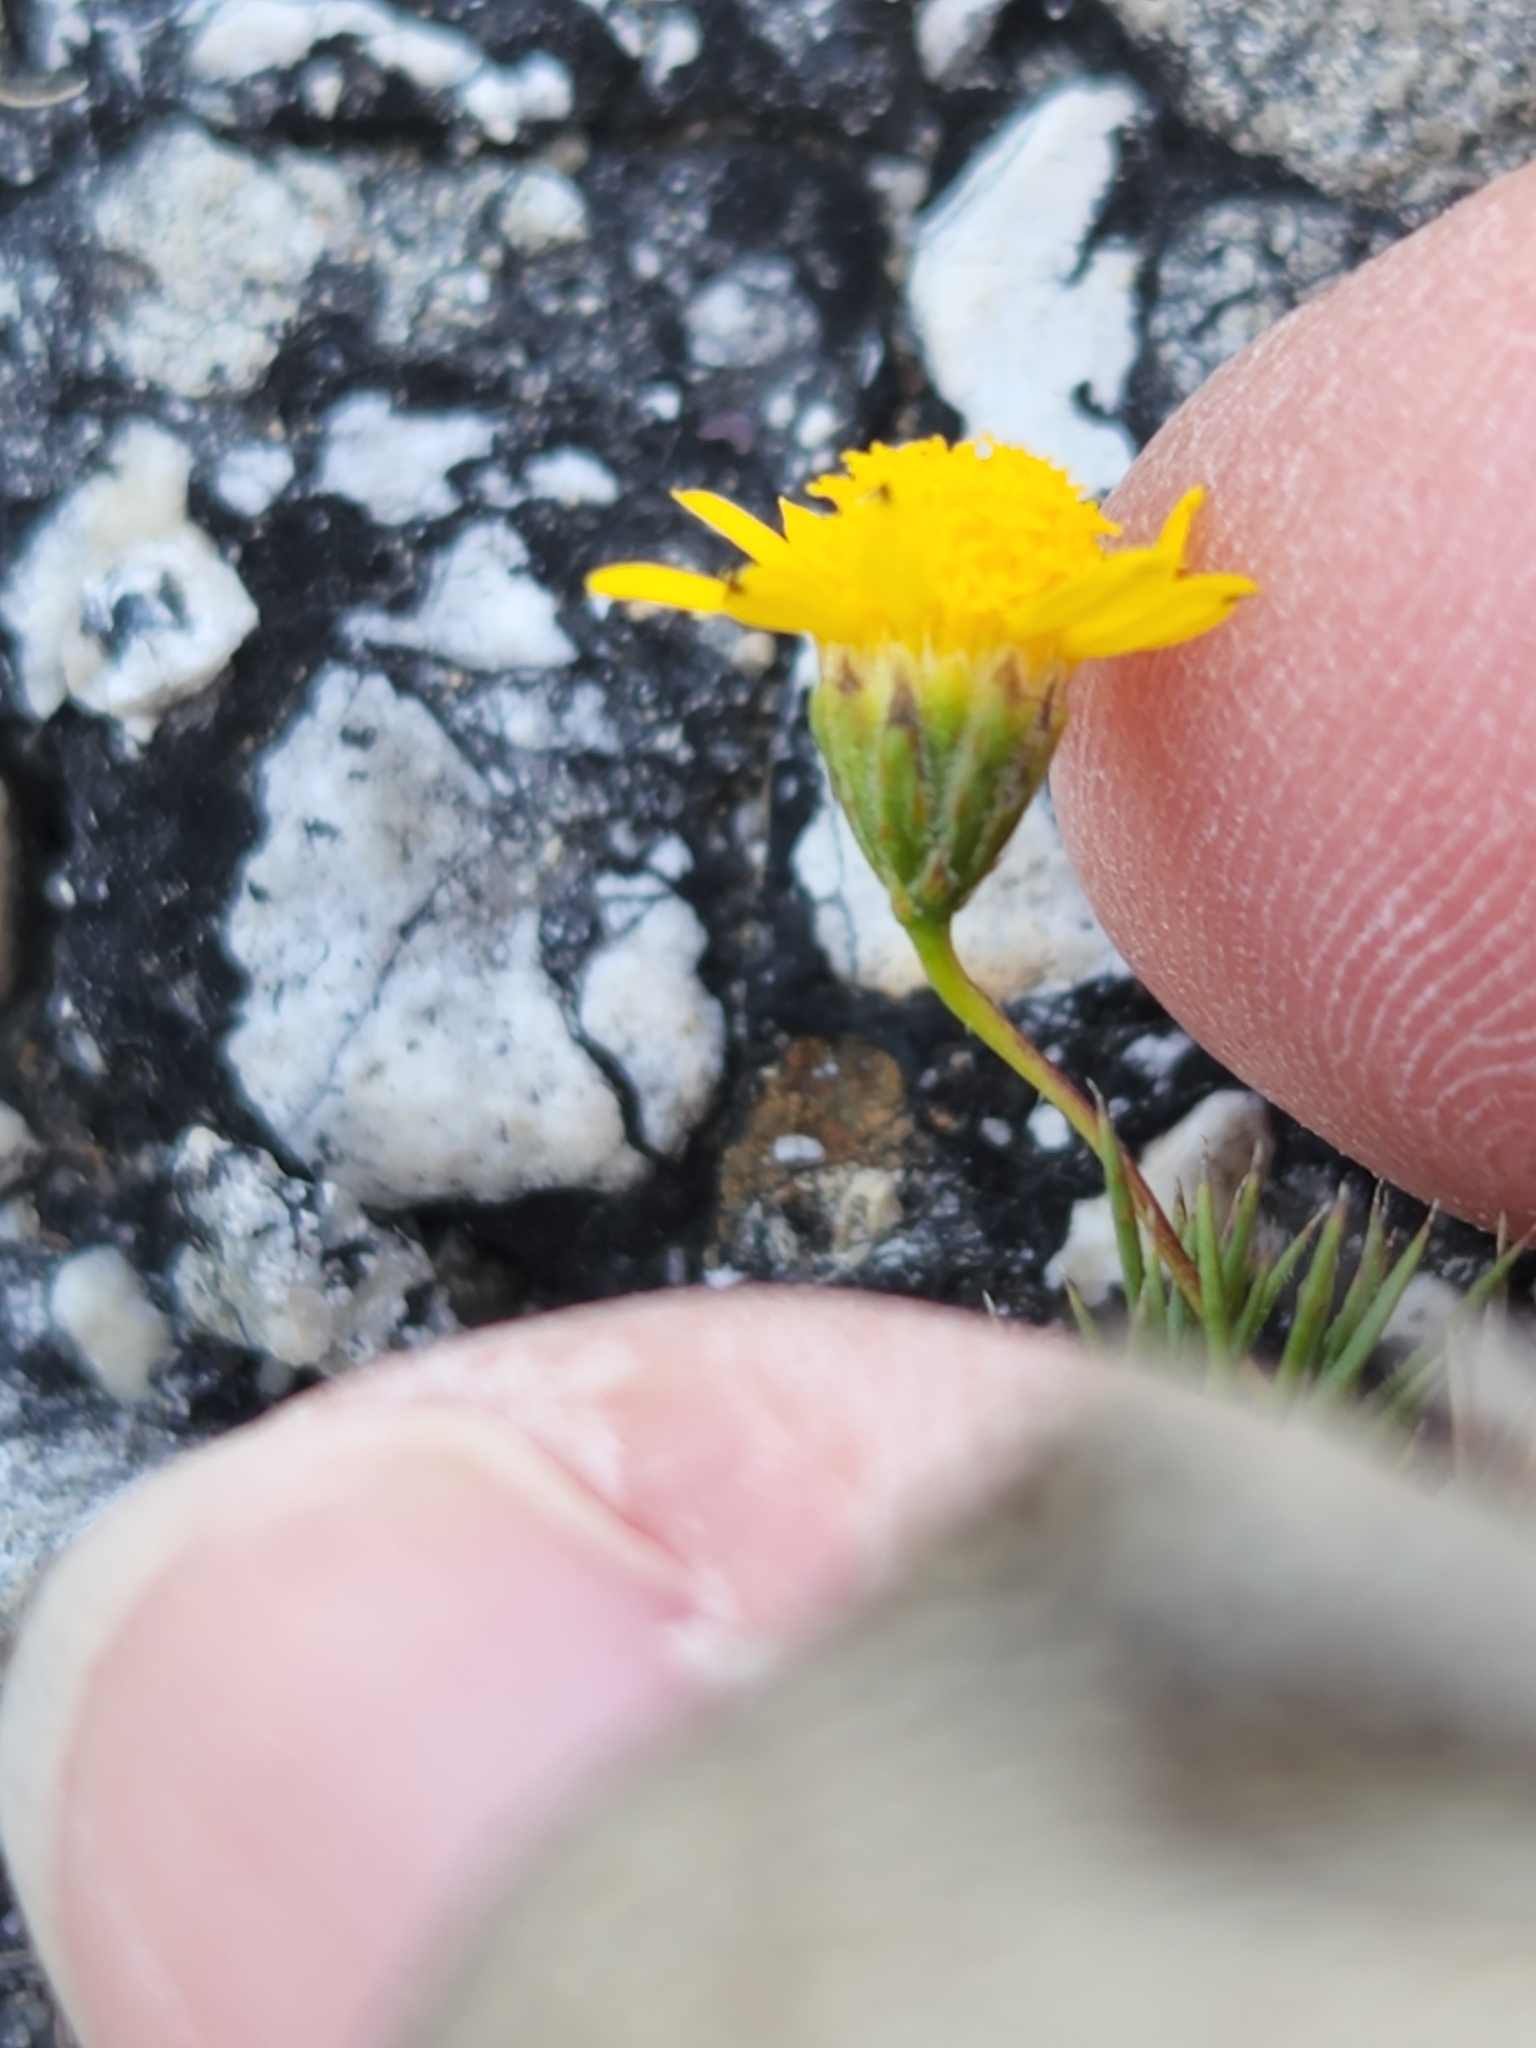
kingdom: Plantae
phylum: Tracheophyta
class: Magnoliopsida
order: Asterales
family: Asteraceae
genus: Thymophylla
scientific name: Thymophylla pentachaeta
